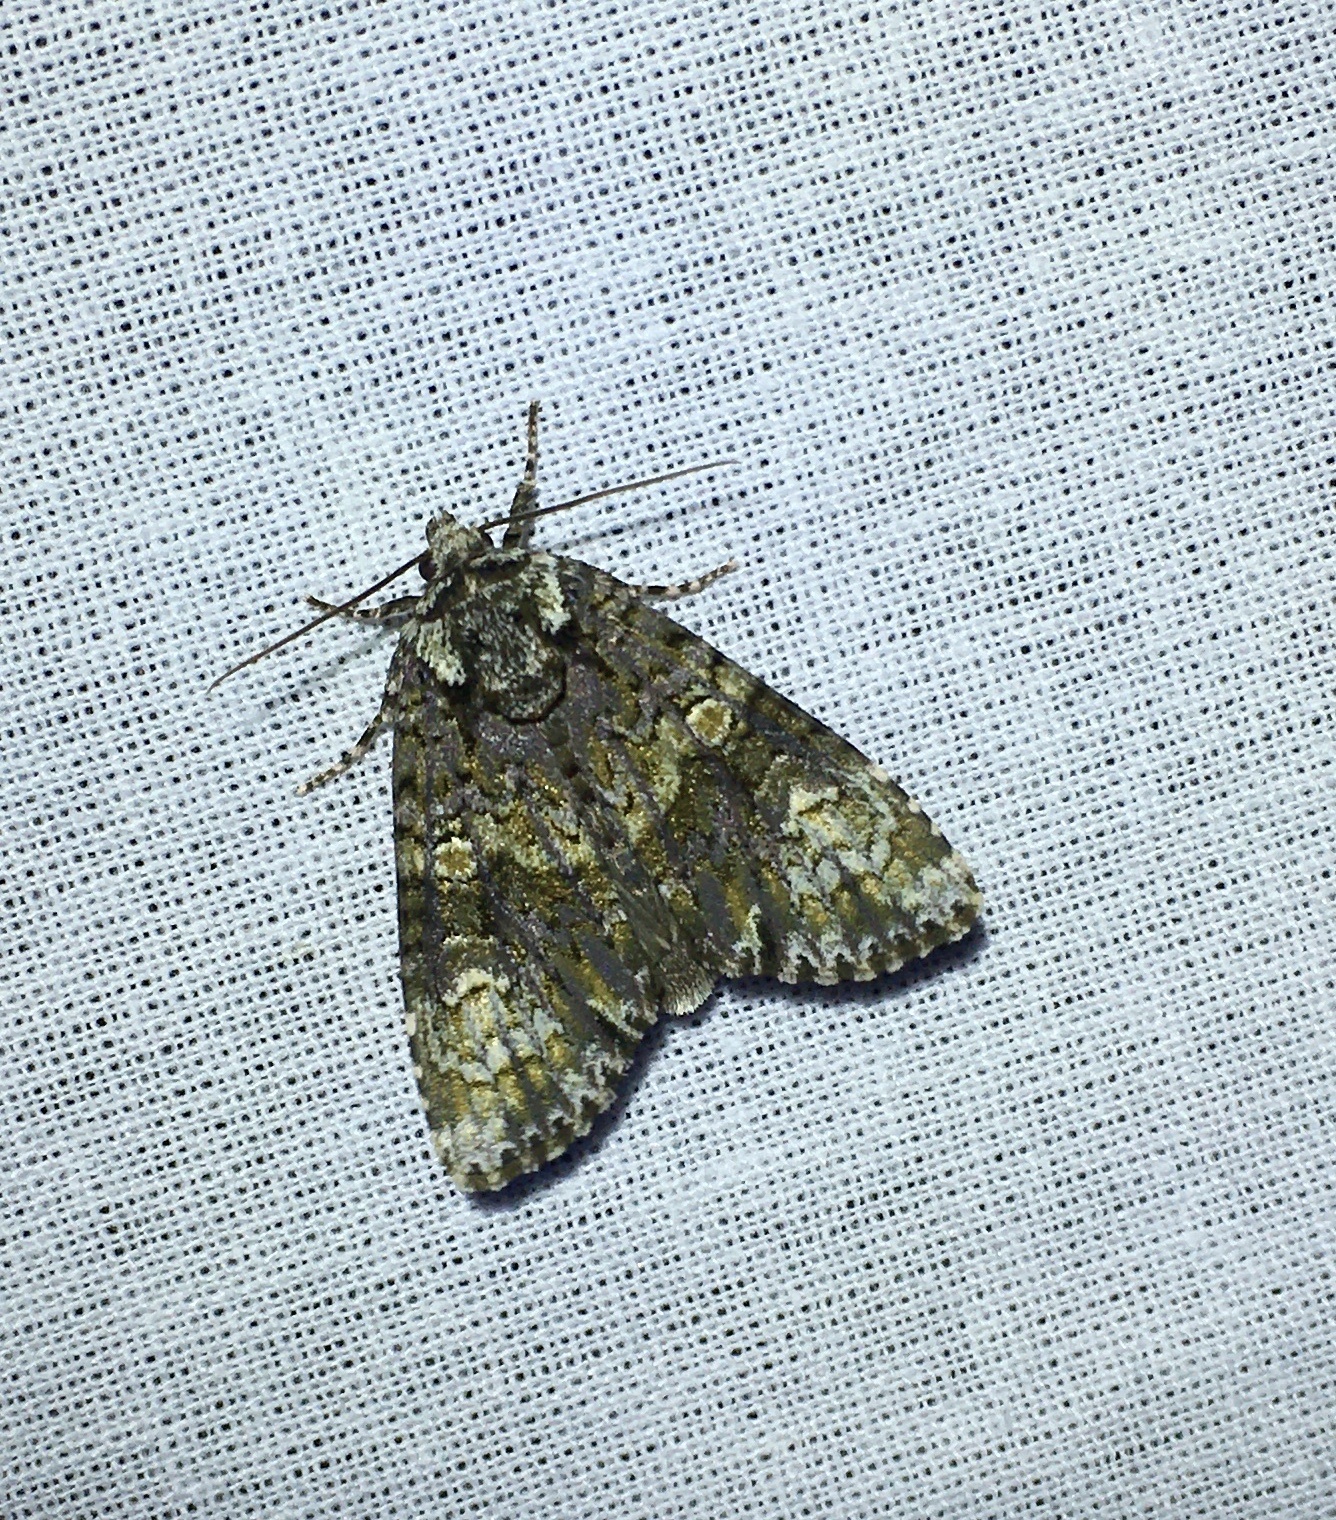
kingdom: Animalia
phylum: Arthropoda
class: Insecta
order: Lepidoptera
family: Noctuidae
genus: Craniophora
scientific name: Craniophora ligustri
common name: Coronet
